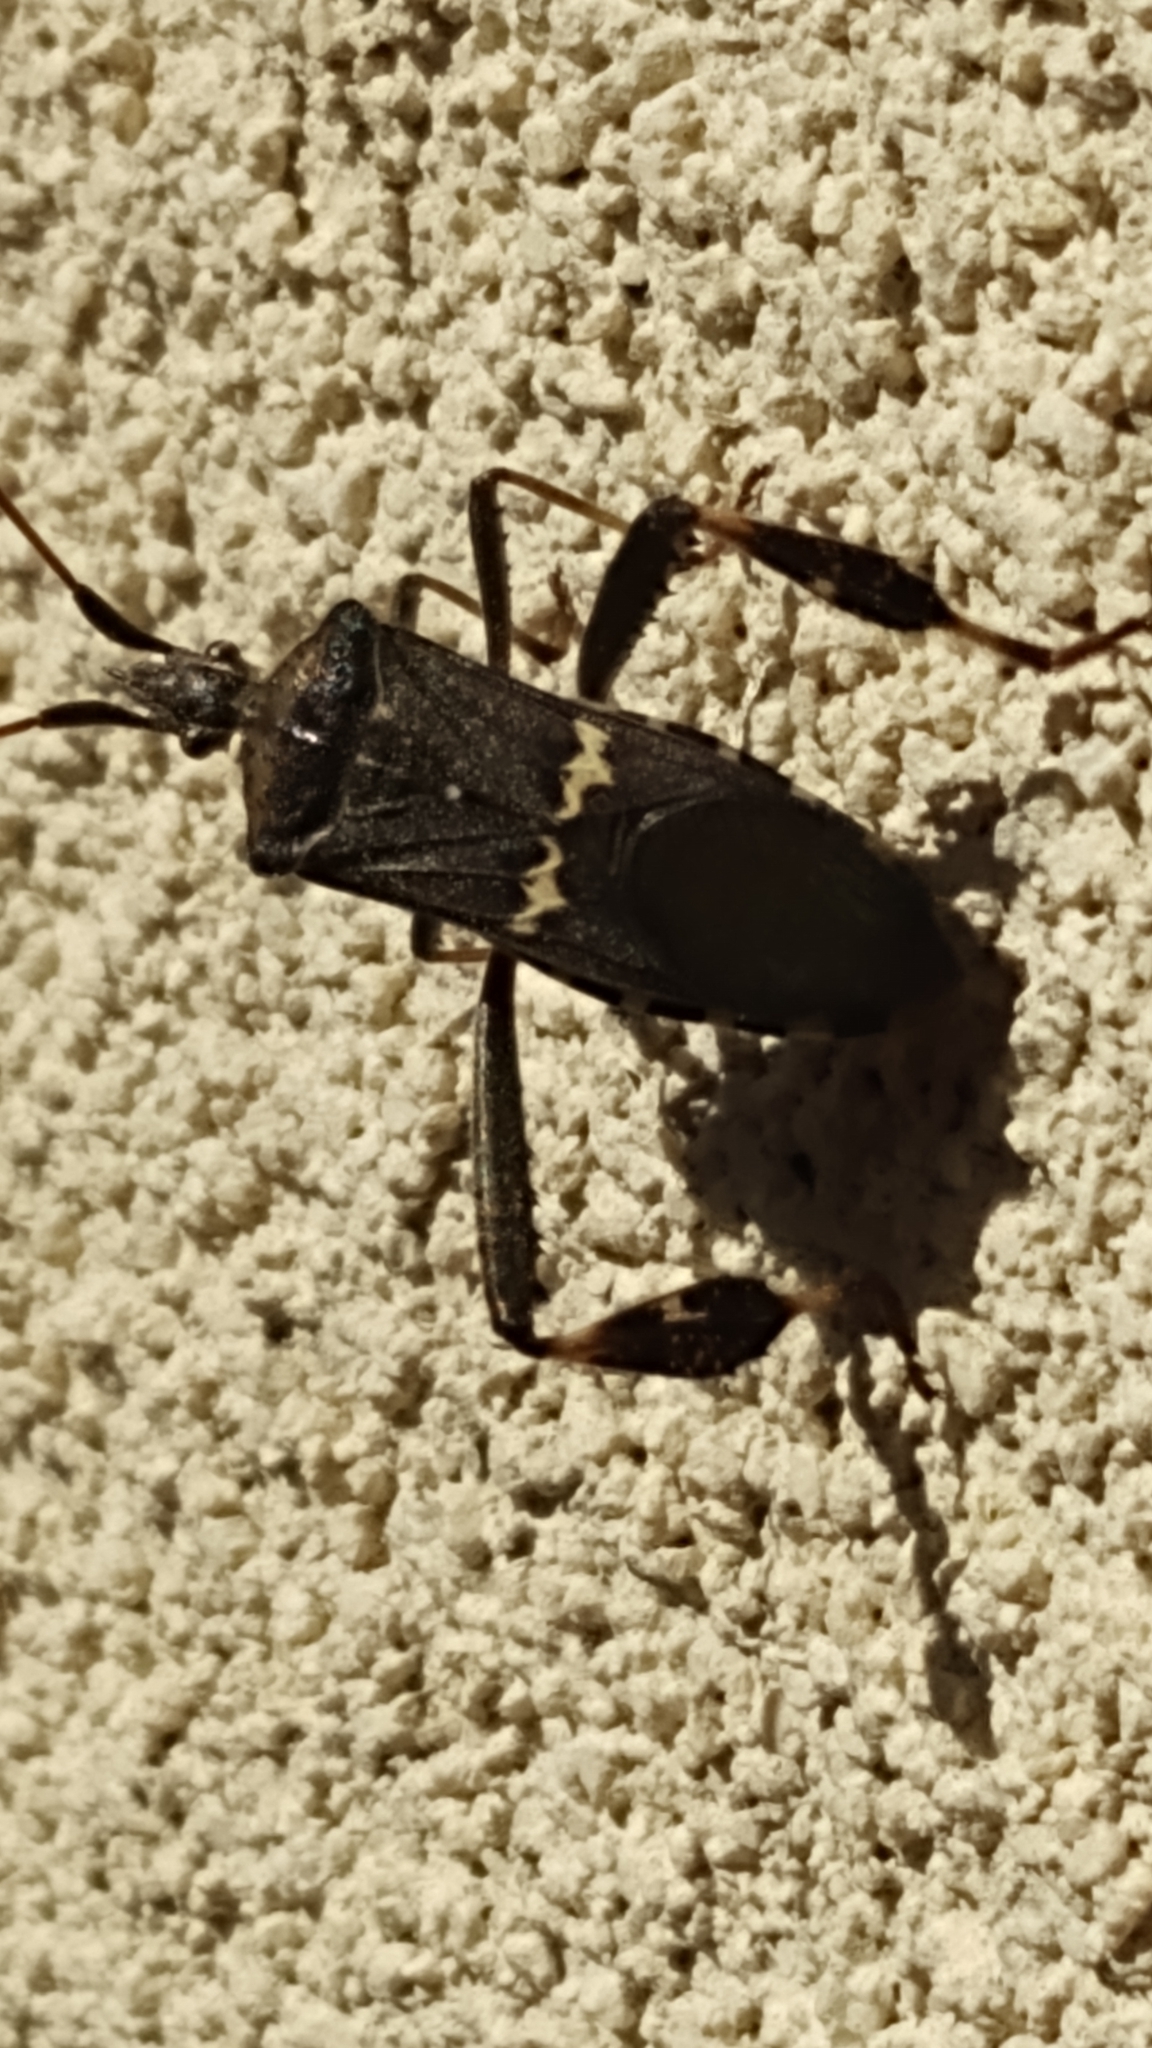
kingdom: Animalia
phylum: Arthropoda
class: Insecta
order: Hemiptera
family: Coreidae
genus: Leptoglossus
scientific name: Leptoglossus clypealis
